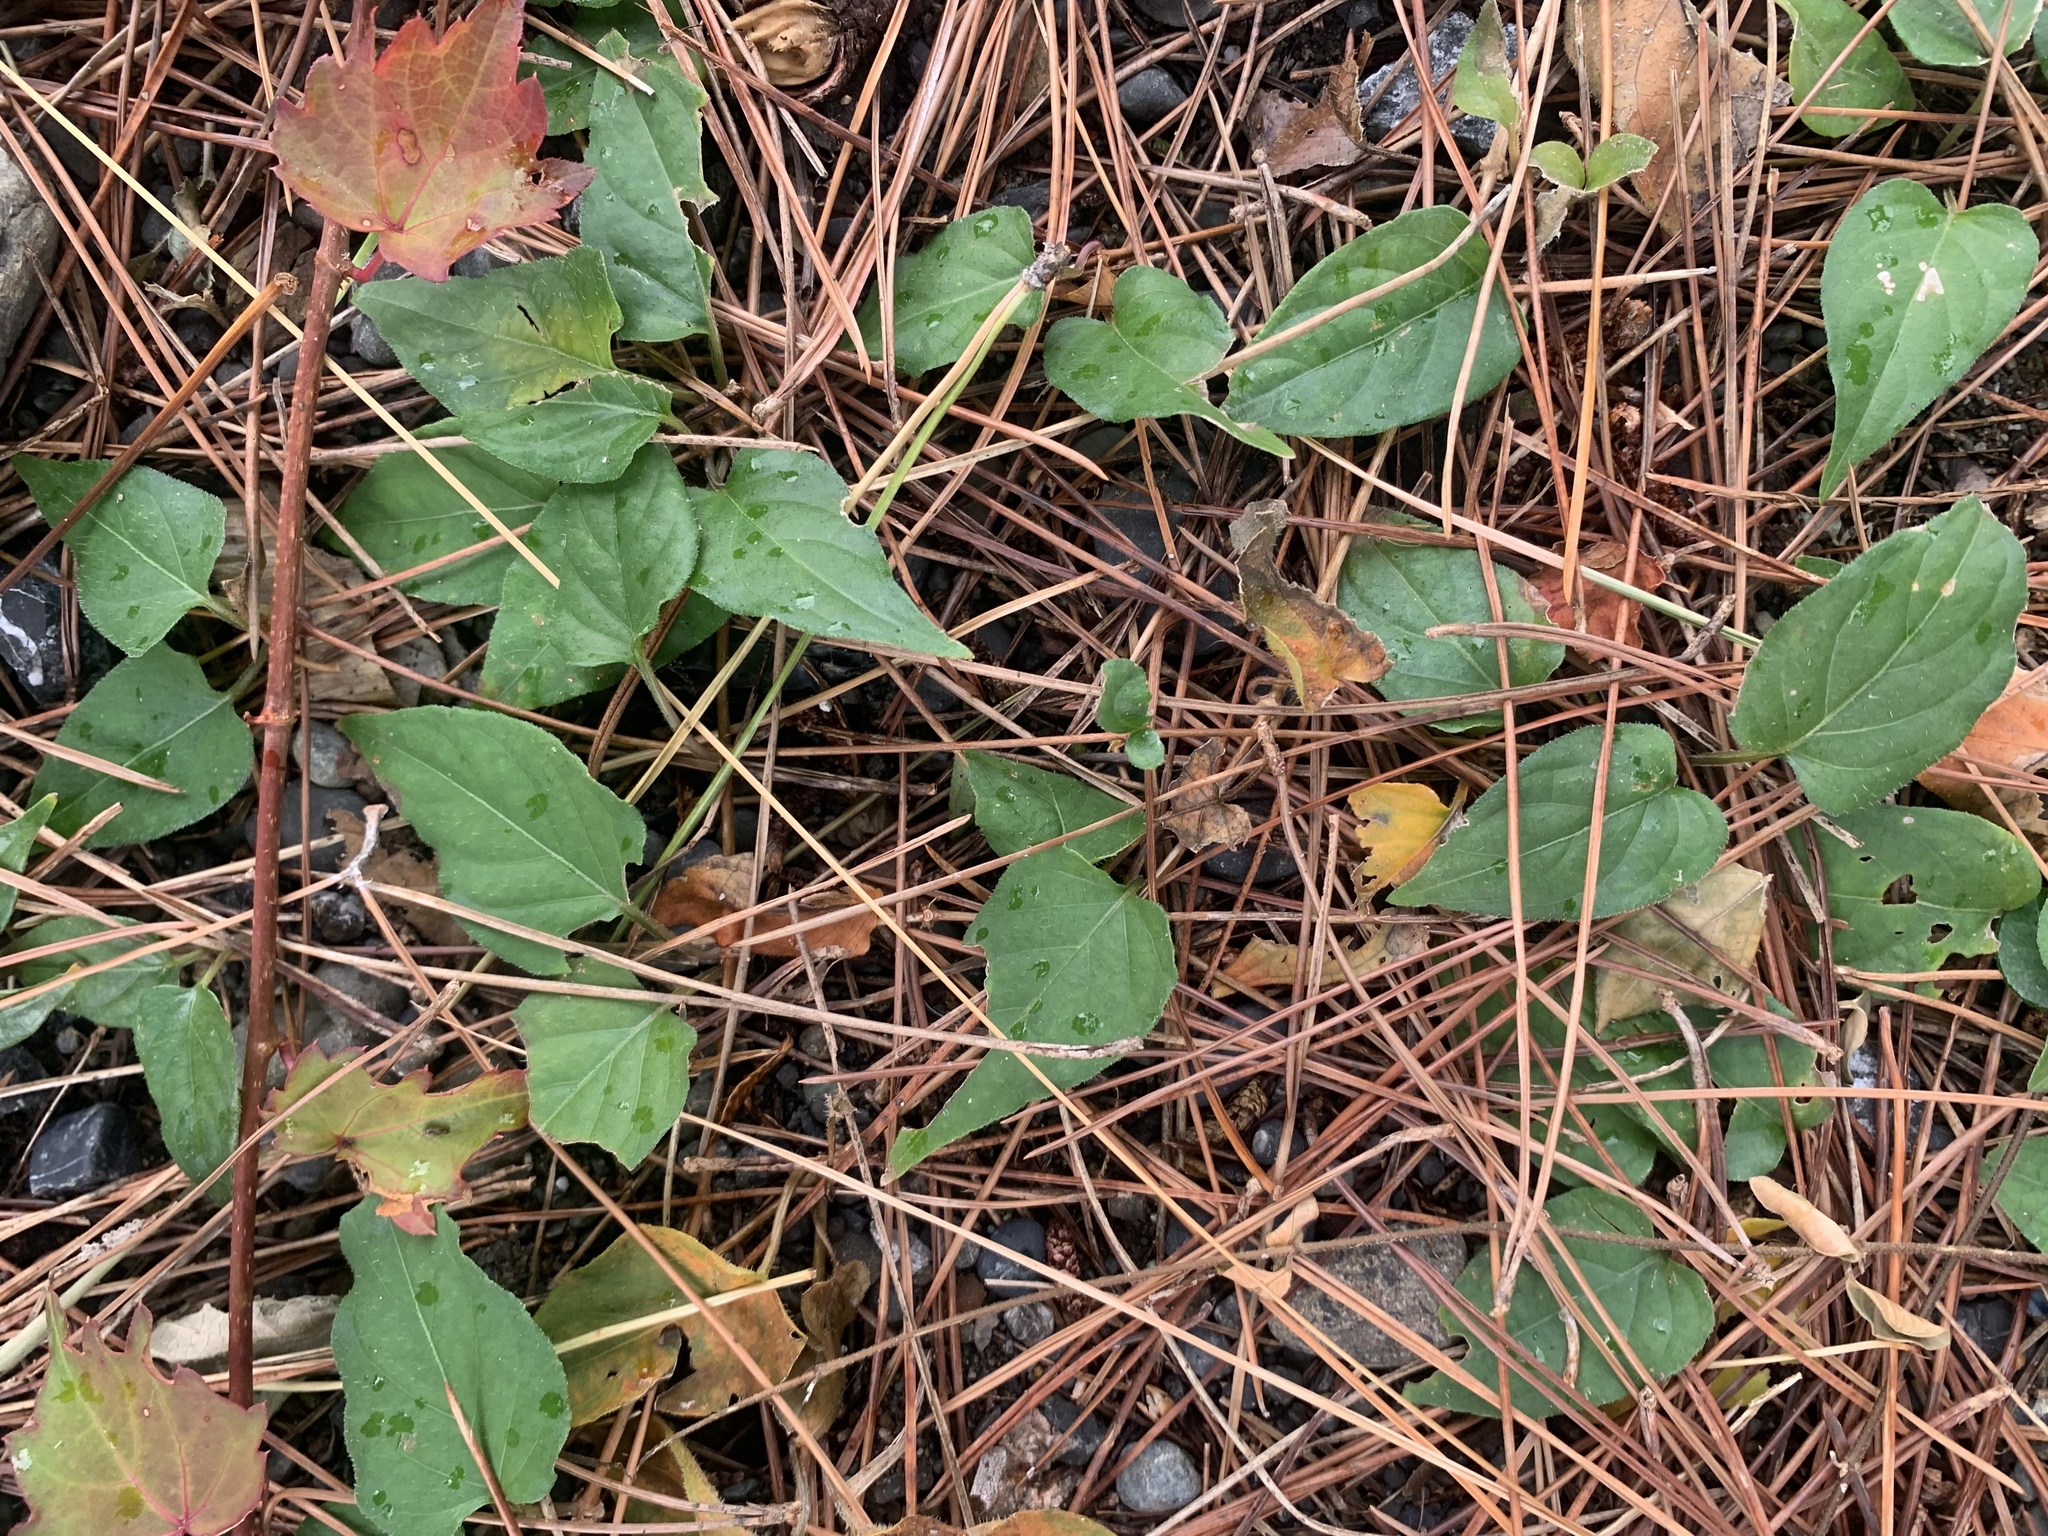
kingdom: Plantae
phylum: Tracheophyta
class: Magnoliopsida
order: Gentianales
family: Rubiaceae
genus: Paederia
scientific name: Paederia foetida
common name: Stinkvine
